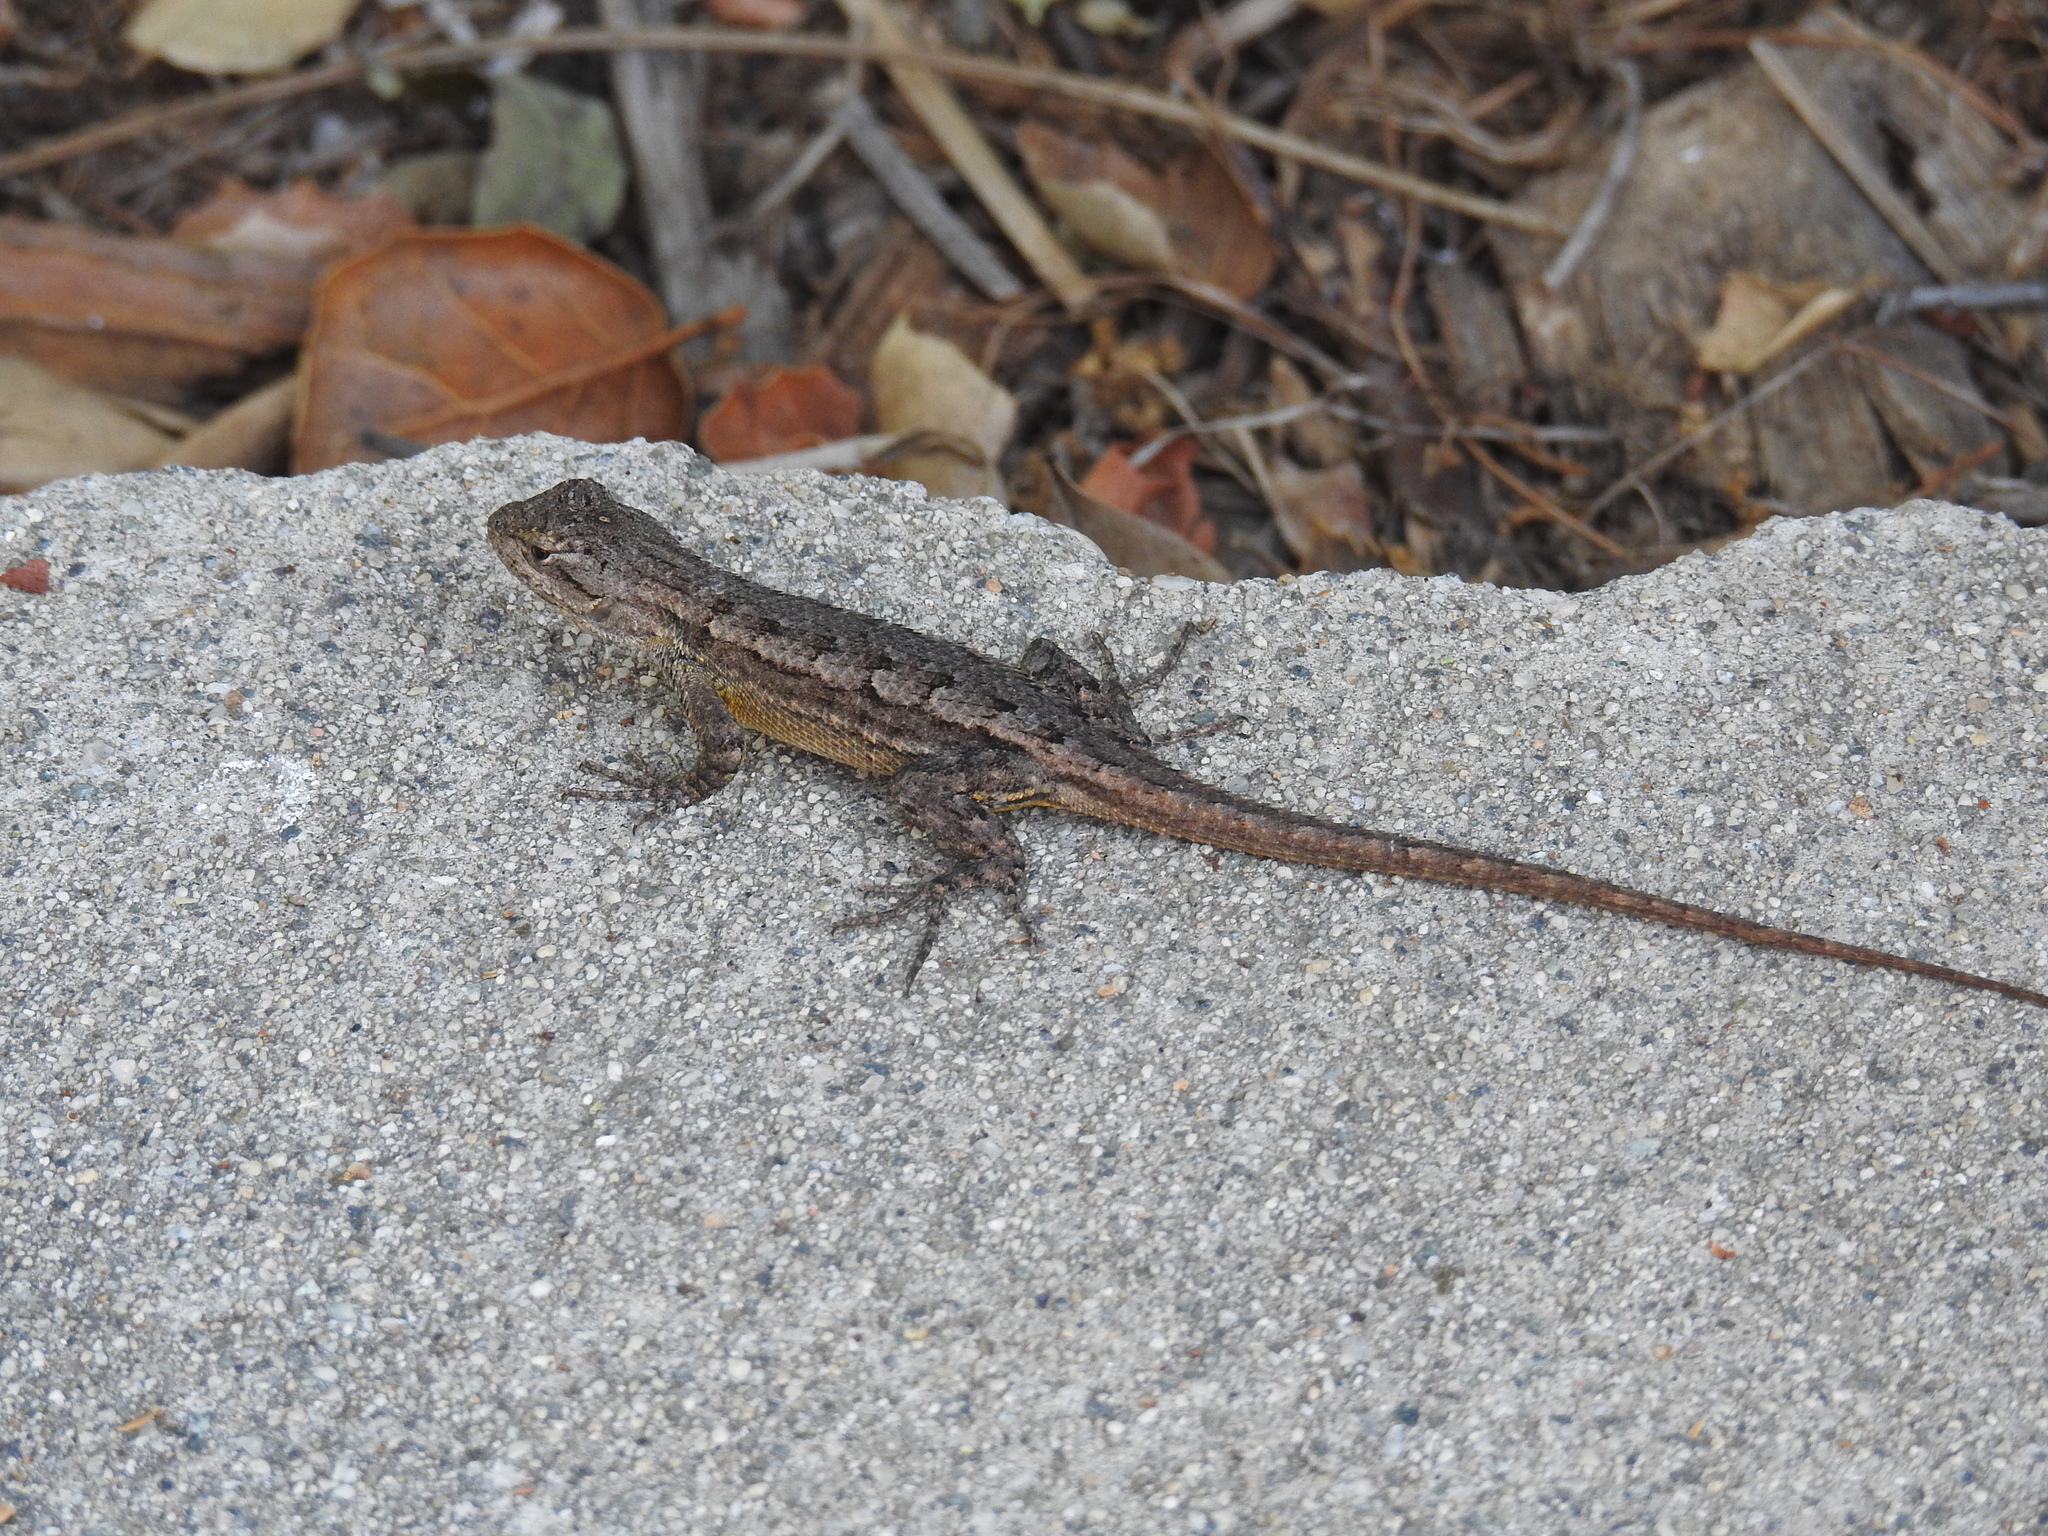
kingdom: Animalia
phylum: Chordata
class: Squamata
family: Phrynosomatidae
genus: Sceloporus
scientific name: Sceloporus occidentalis
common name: Western fence lizard
